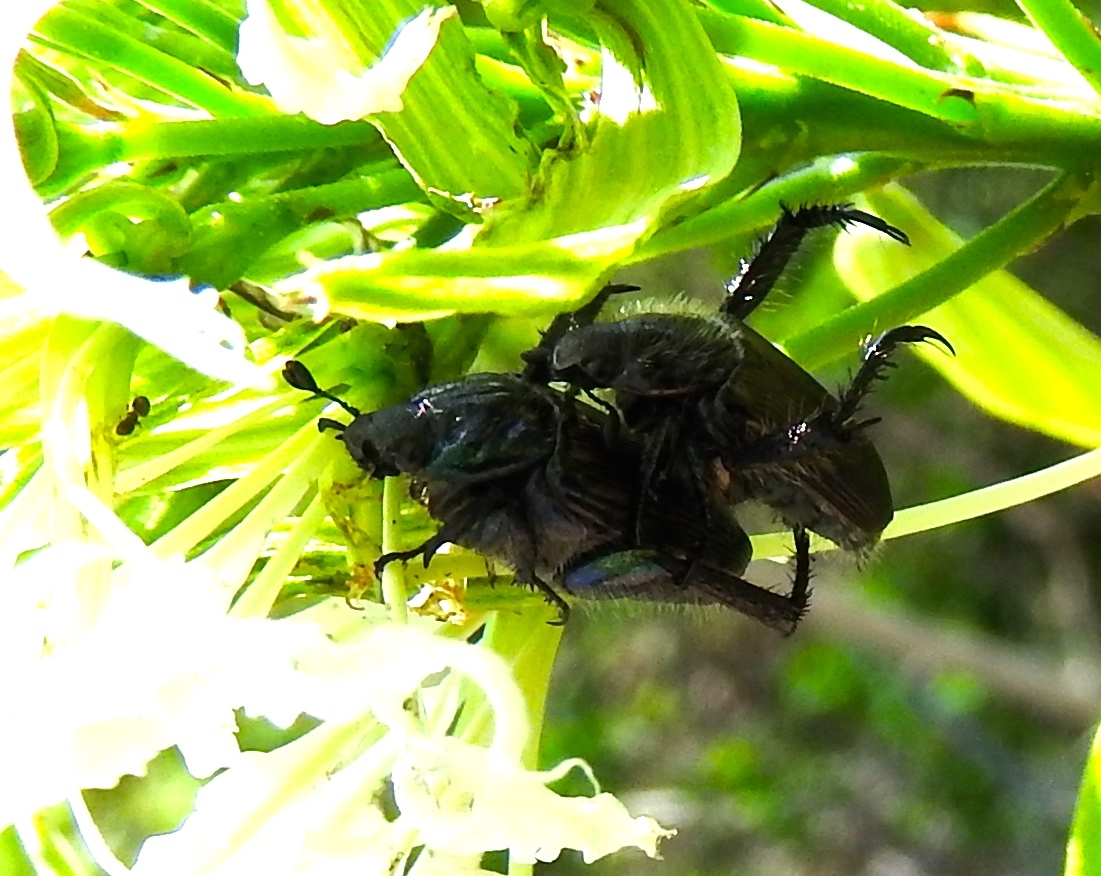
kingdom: Animalia
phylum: Arthropoda
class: Insecta
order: Coleoptera
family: Scarabaeidae
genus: Strigoderma
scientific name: Strigoderma sulcipennis
